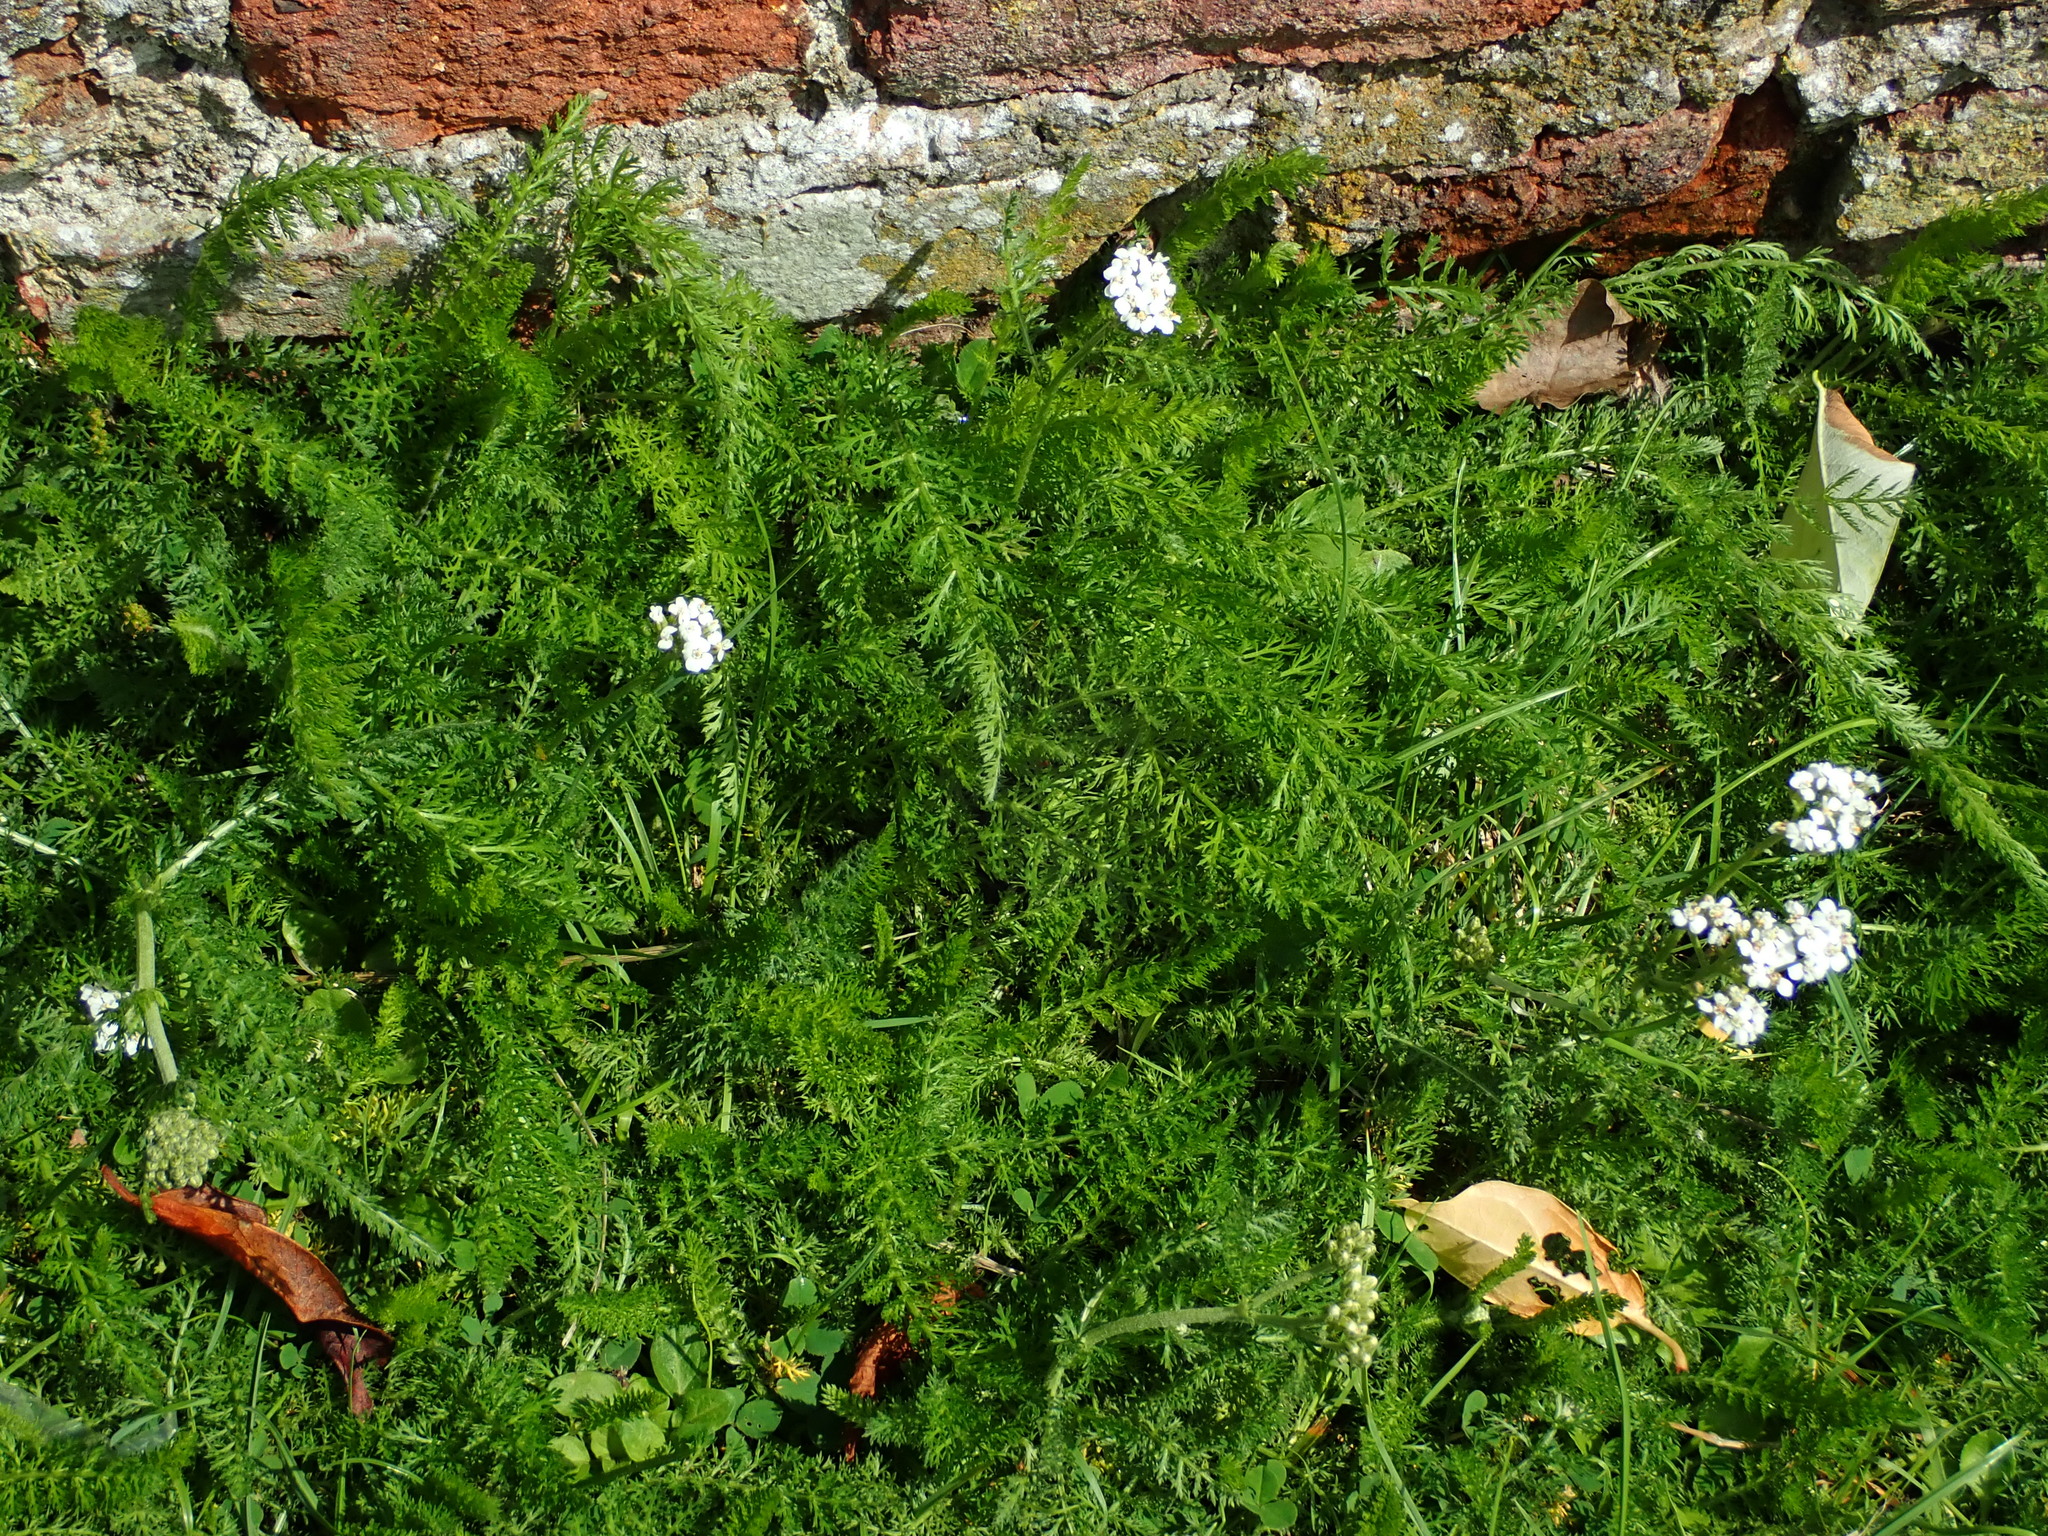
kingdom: Plantae
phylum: Tracheophyta
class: Magnoliopsida
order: Asterales
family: Asteraceae
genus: Achillea
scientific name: Achillea millefolium
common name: Yarrow
